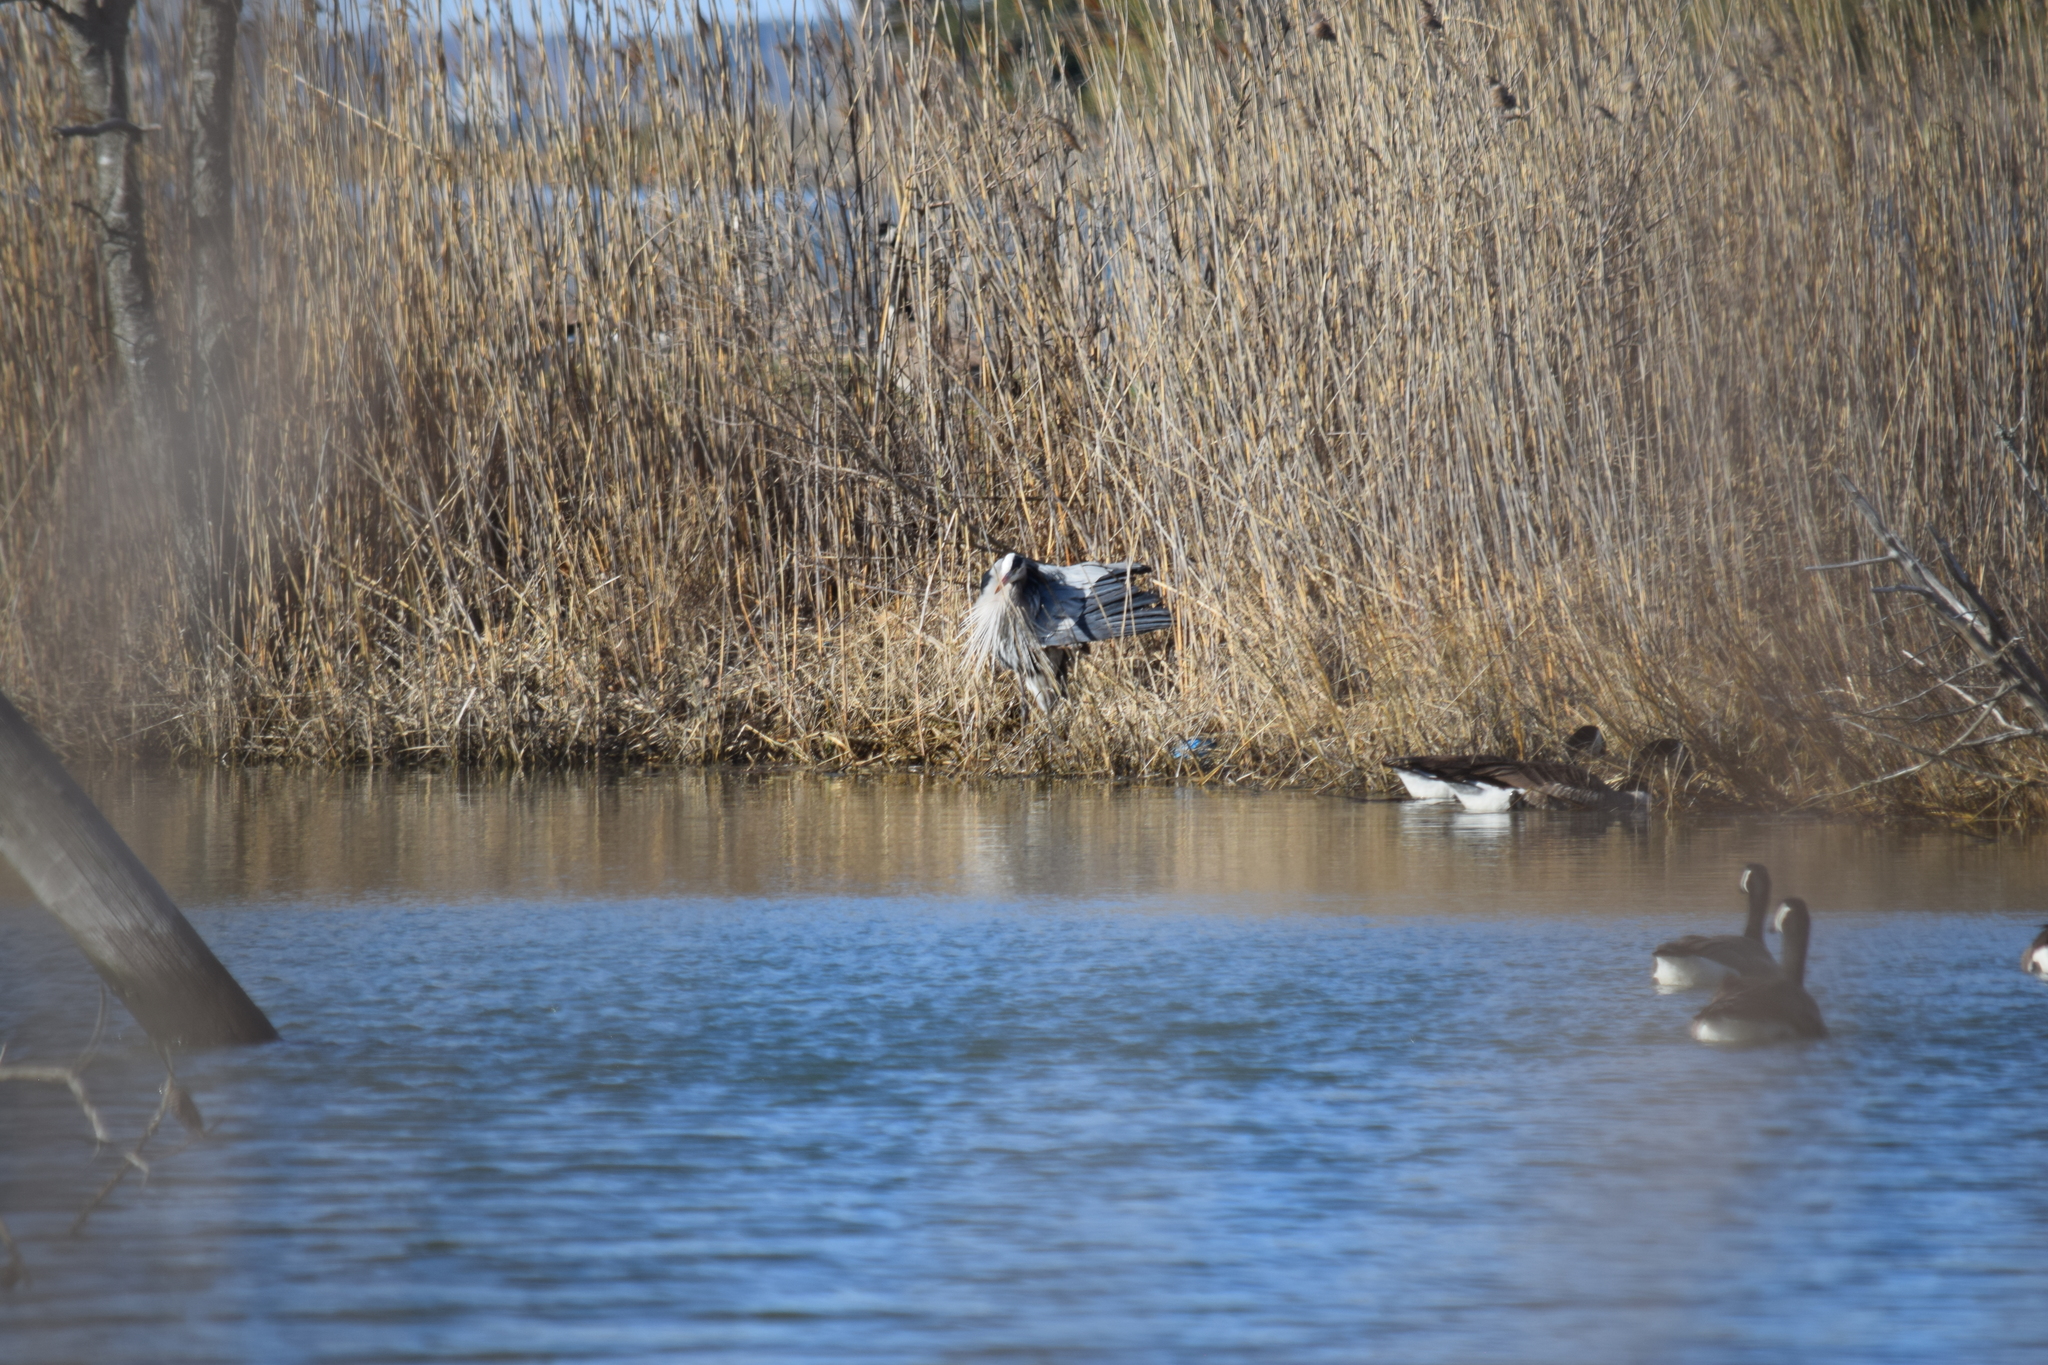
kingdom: Animalia
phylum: Chordata
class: Aves
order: Pelecaniformes
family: Ardeidae
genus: Ardea
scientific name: Ardea herodias
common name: Great blue heron
